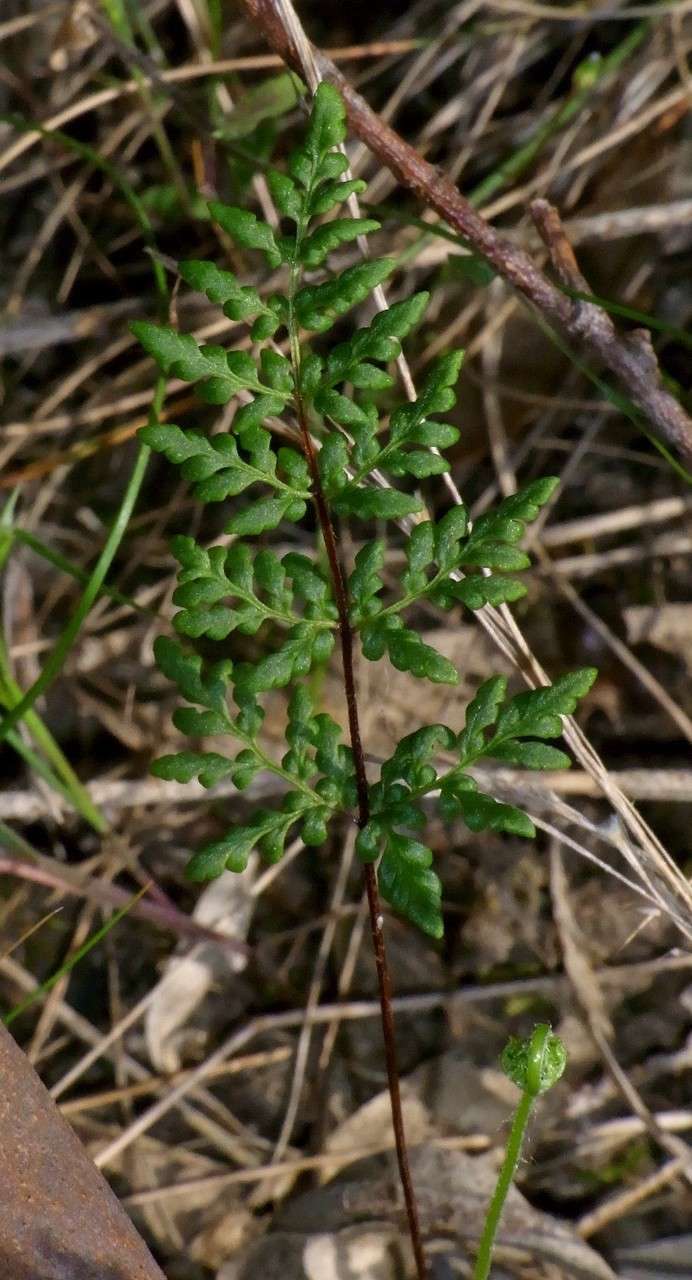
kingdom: Plantae
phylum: Tracheophyta
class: Polypodiopsida
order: Polypodiales
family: Pteridaceae
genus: Cheilanthes
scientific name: Cheilanthes sieberi
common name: Mulga fern
